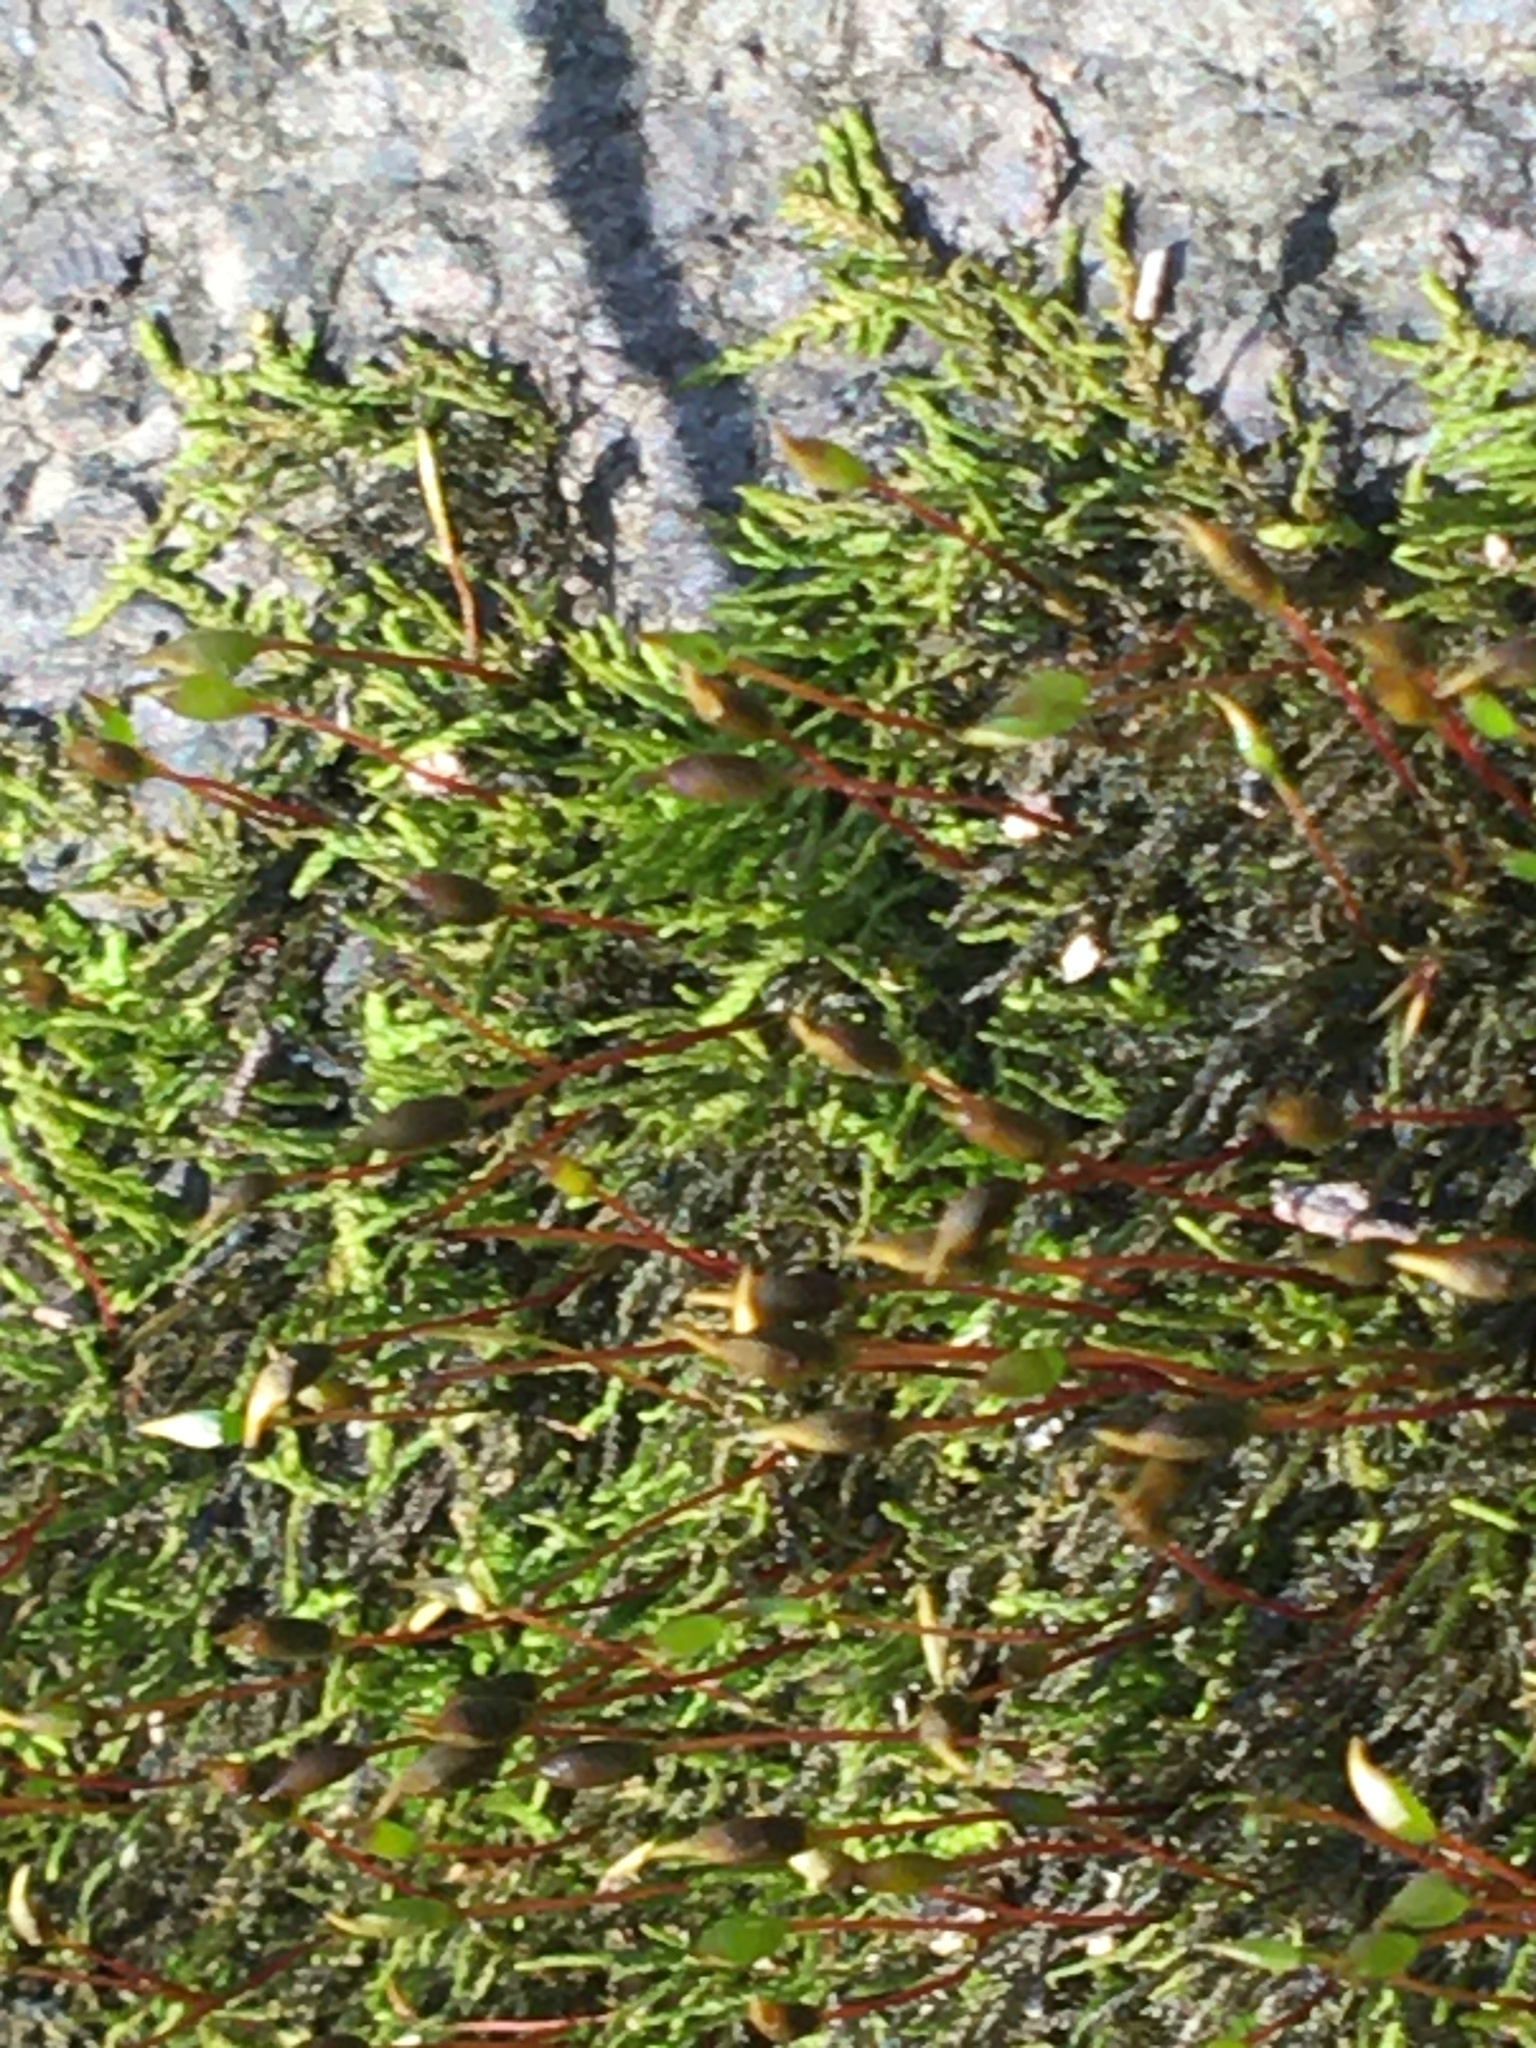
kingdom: Plantae
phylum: Bryophyta
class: Bryopsida
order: Hypnales
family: Amblystegiaceae
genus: Amblystegium
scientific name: Amblystegium serpens
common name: Jurkatzka's feather moss
